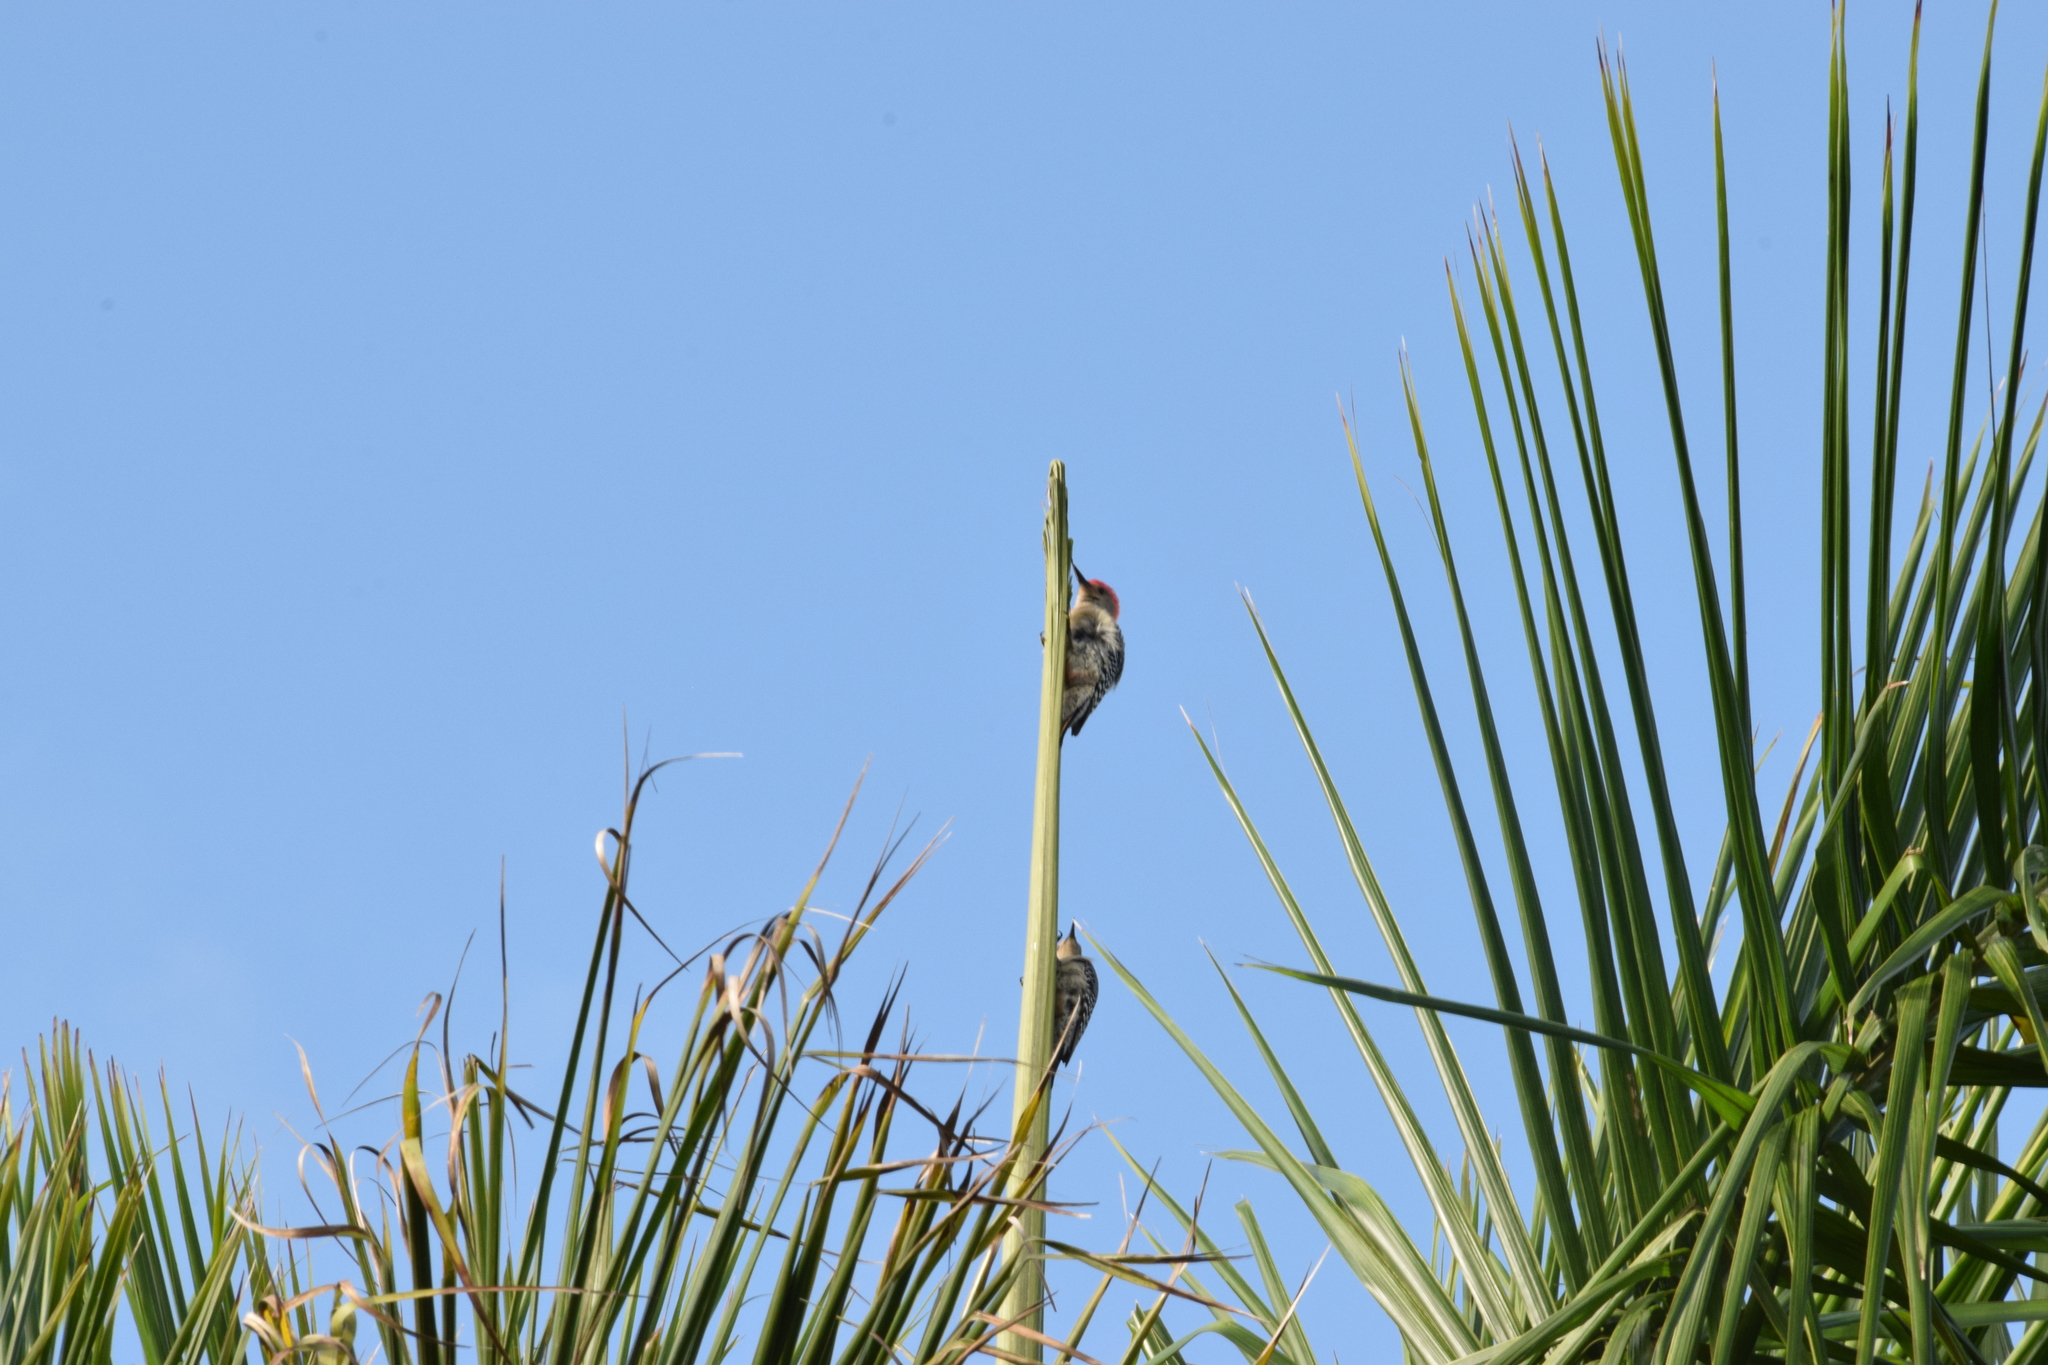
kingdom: Animalia
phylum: Chordata
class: Aves
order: Piciformes
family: Picidae
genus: Melanerpes
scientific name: Melanerpes carolinus
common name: Red-bellied woodpecker
